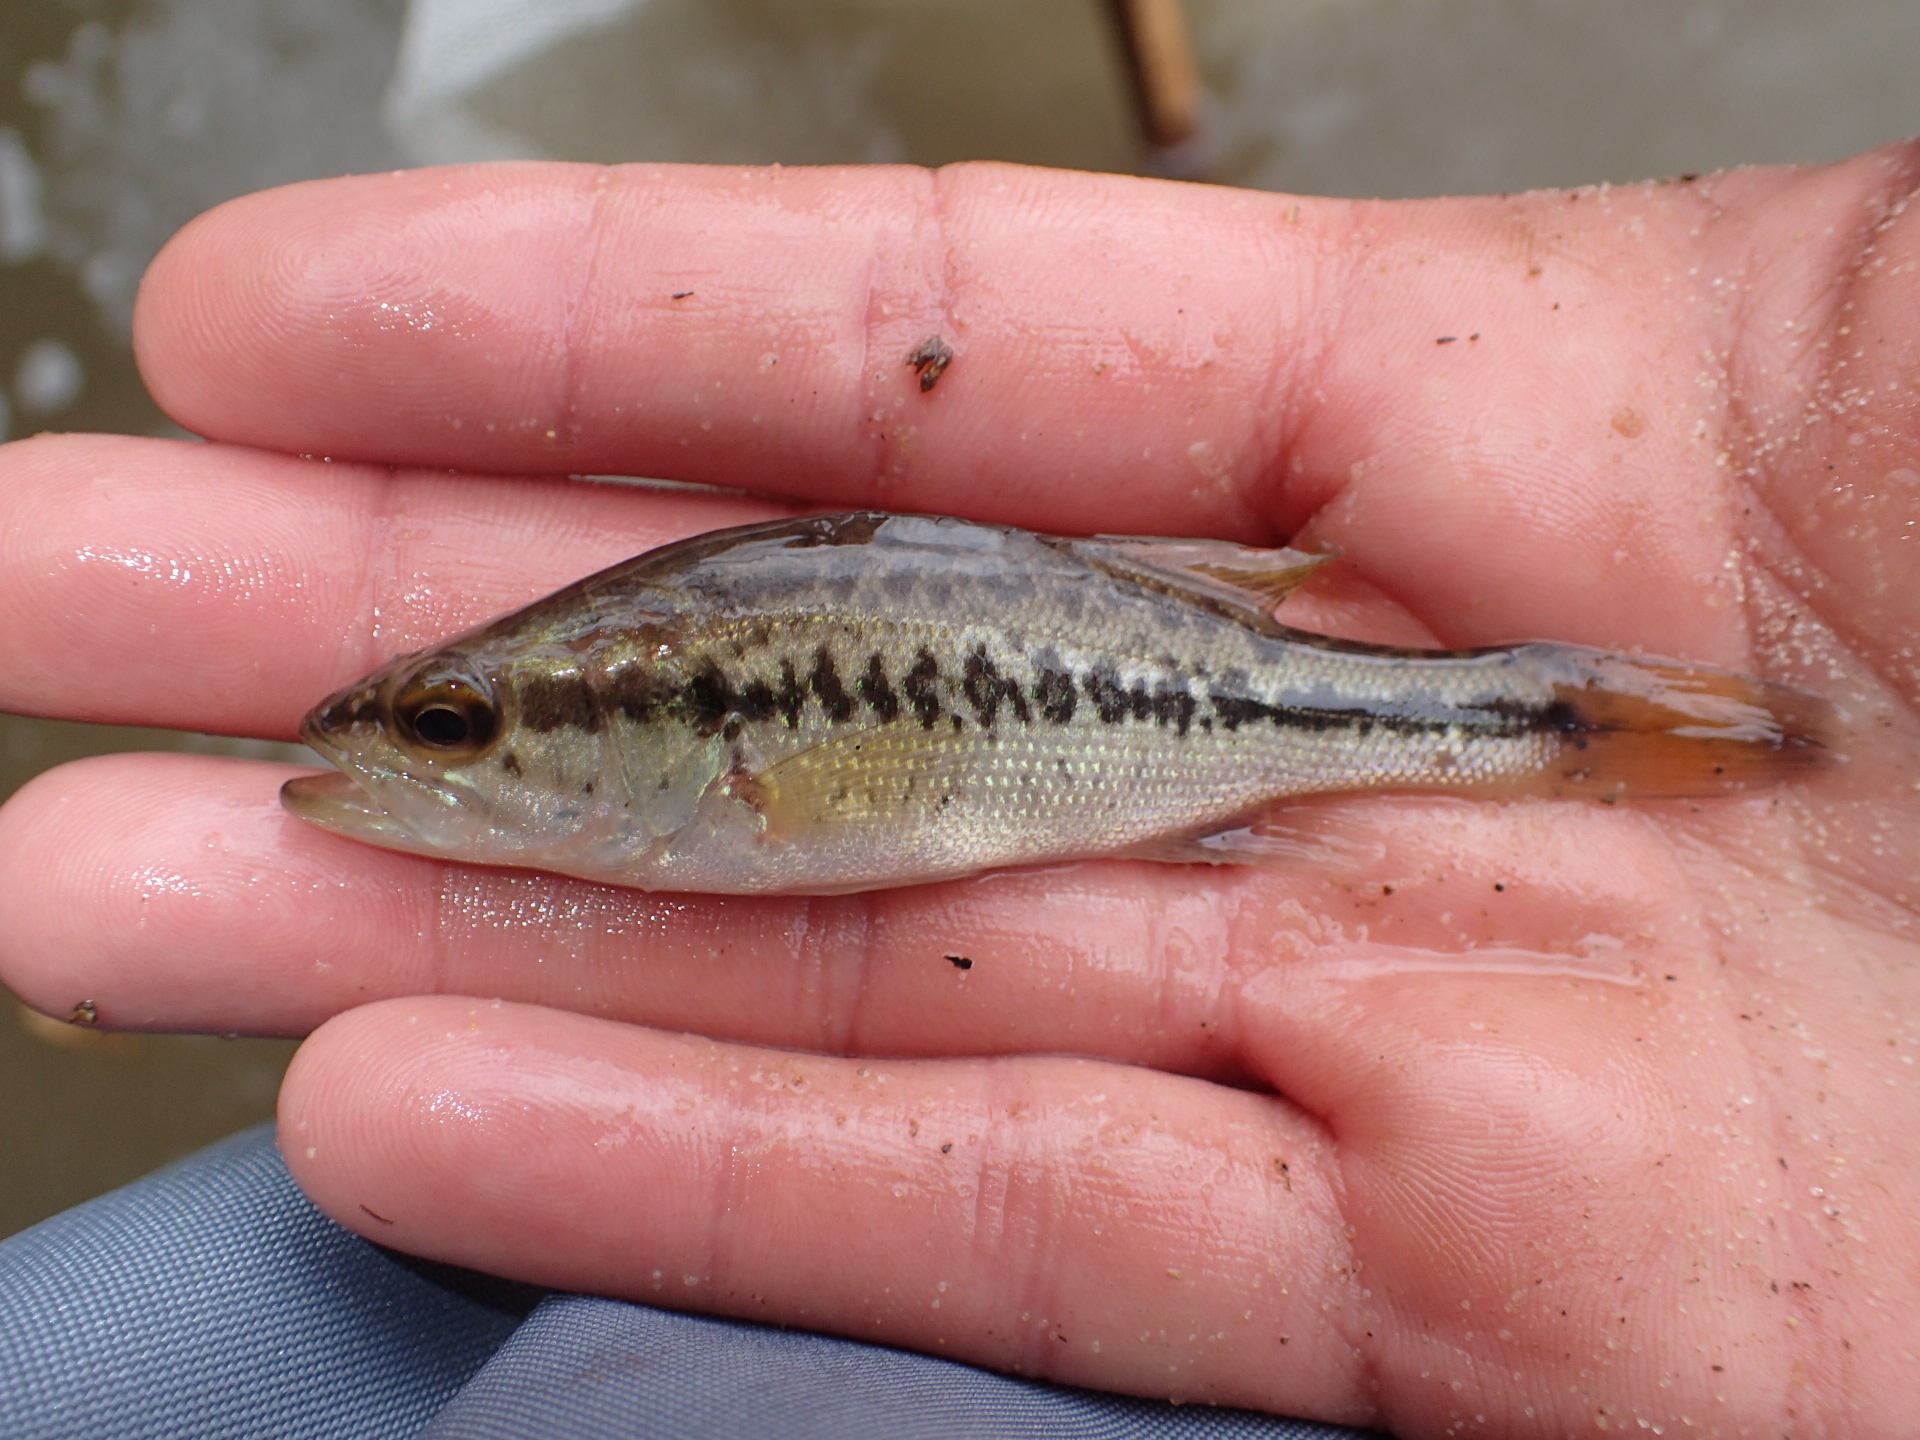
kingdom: Animalia
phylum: Chordata
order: Perciformes
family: Centrarchidae
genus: Micropterus
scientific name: Micropterus
